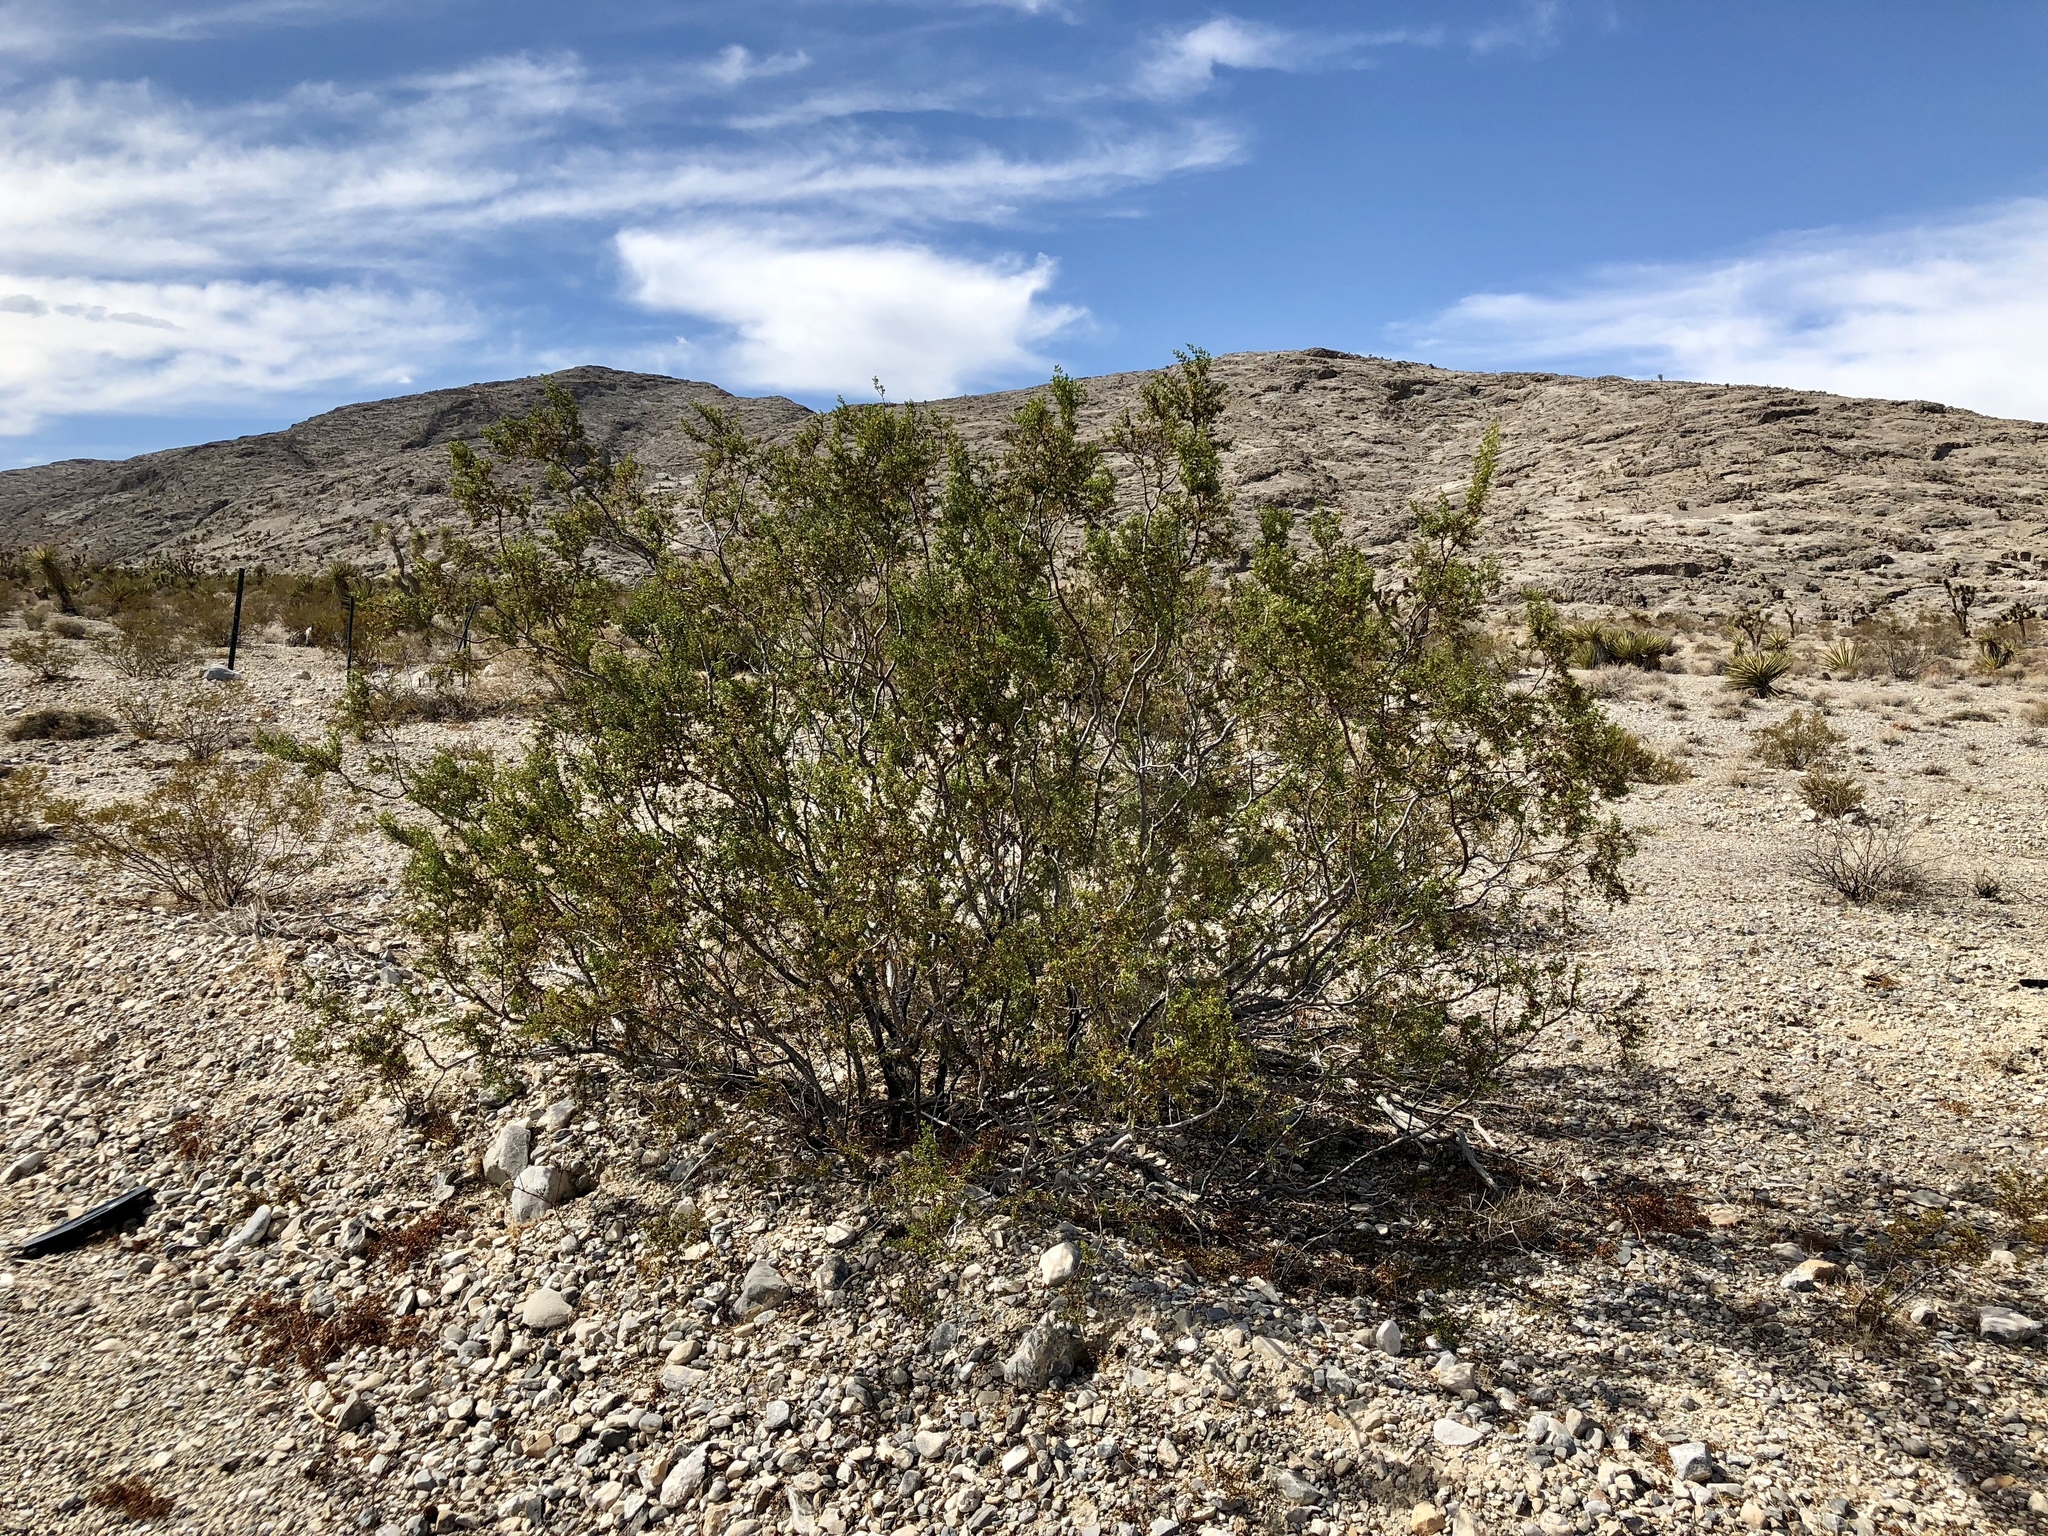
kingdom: Plantae
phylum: Tracheophyta
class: Magnoliopsida
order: Zygophyllales
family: Zygophyllaceae
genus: Larrea
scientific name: Larrea tridentata
